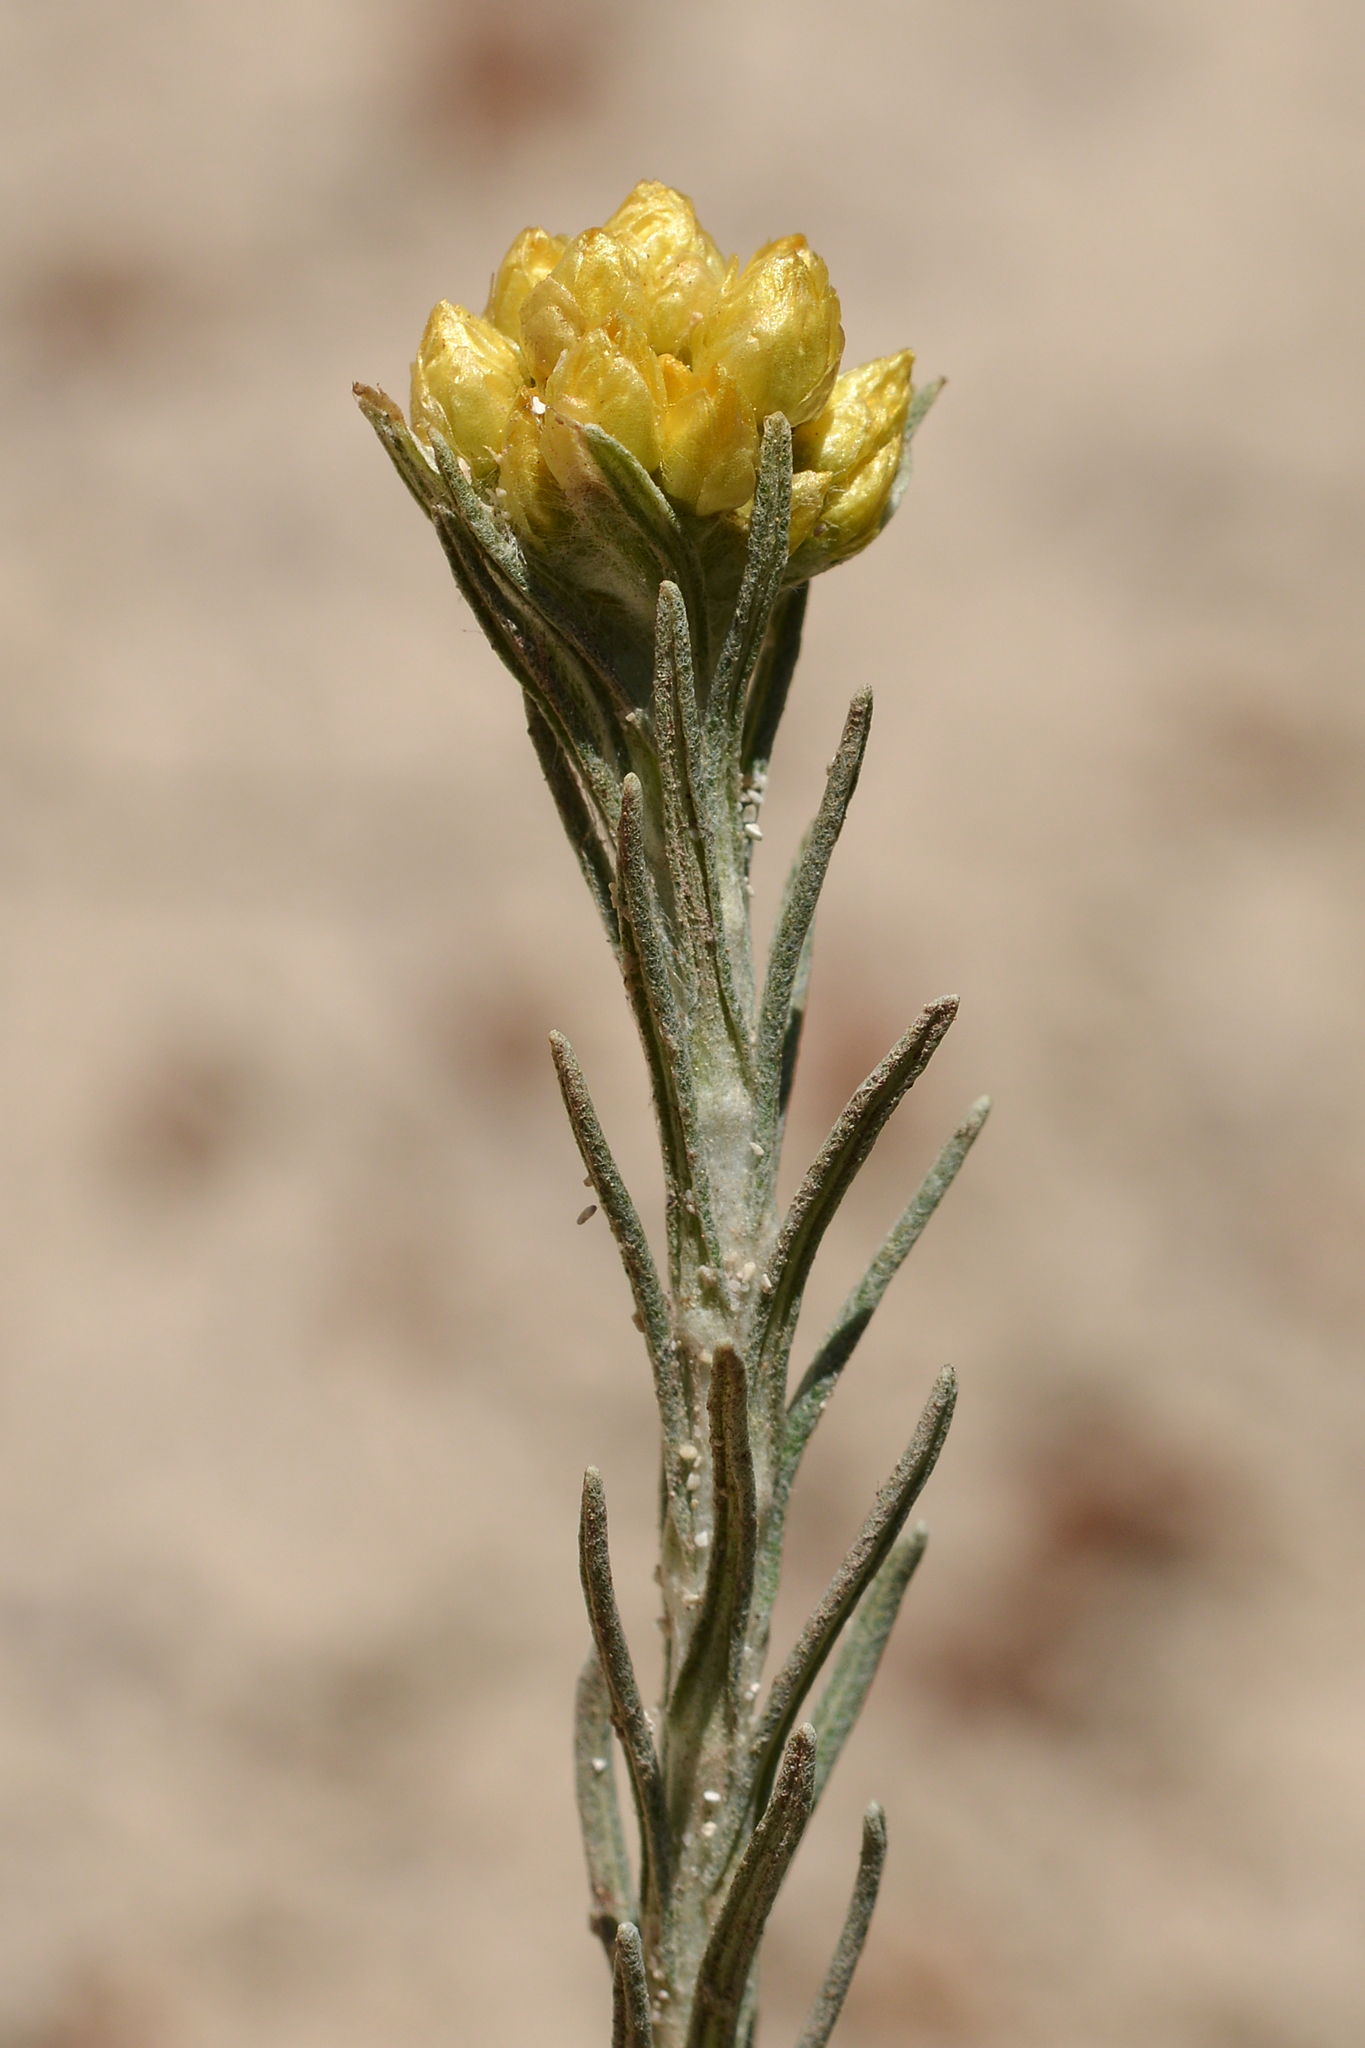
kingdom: Plantae
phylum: Tracheophyta
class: Magnoliopsida
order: Asterales
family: Asteraceae
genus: Helichrysum
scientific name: Helichrysum stoechas
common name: Goldilocks
